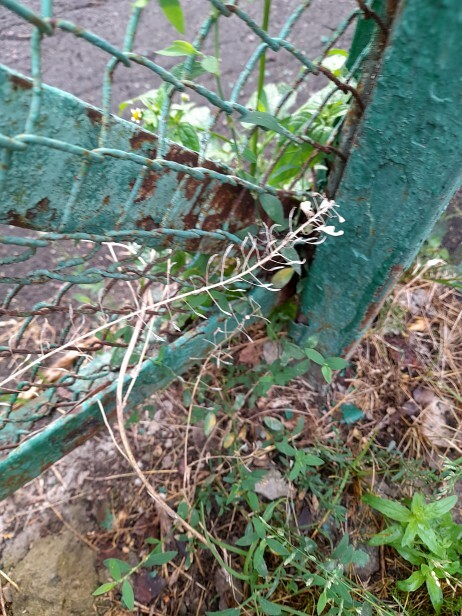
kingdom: Plantae
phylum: Tracheophyta
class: Magnoliopsida
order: Brassicales
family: Brassicaceae
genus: Capsella
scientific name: Capsella bursa-pastoris
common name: Shepherd's purse
